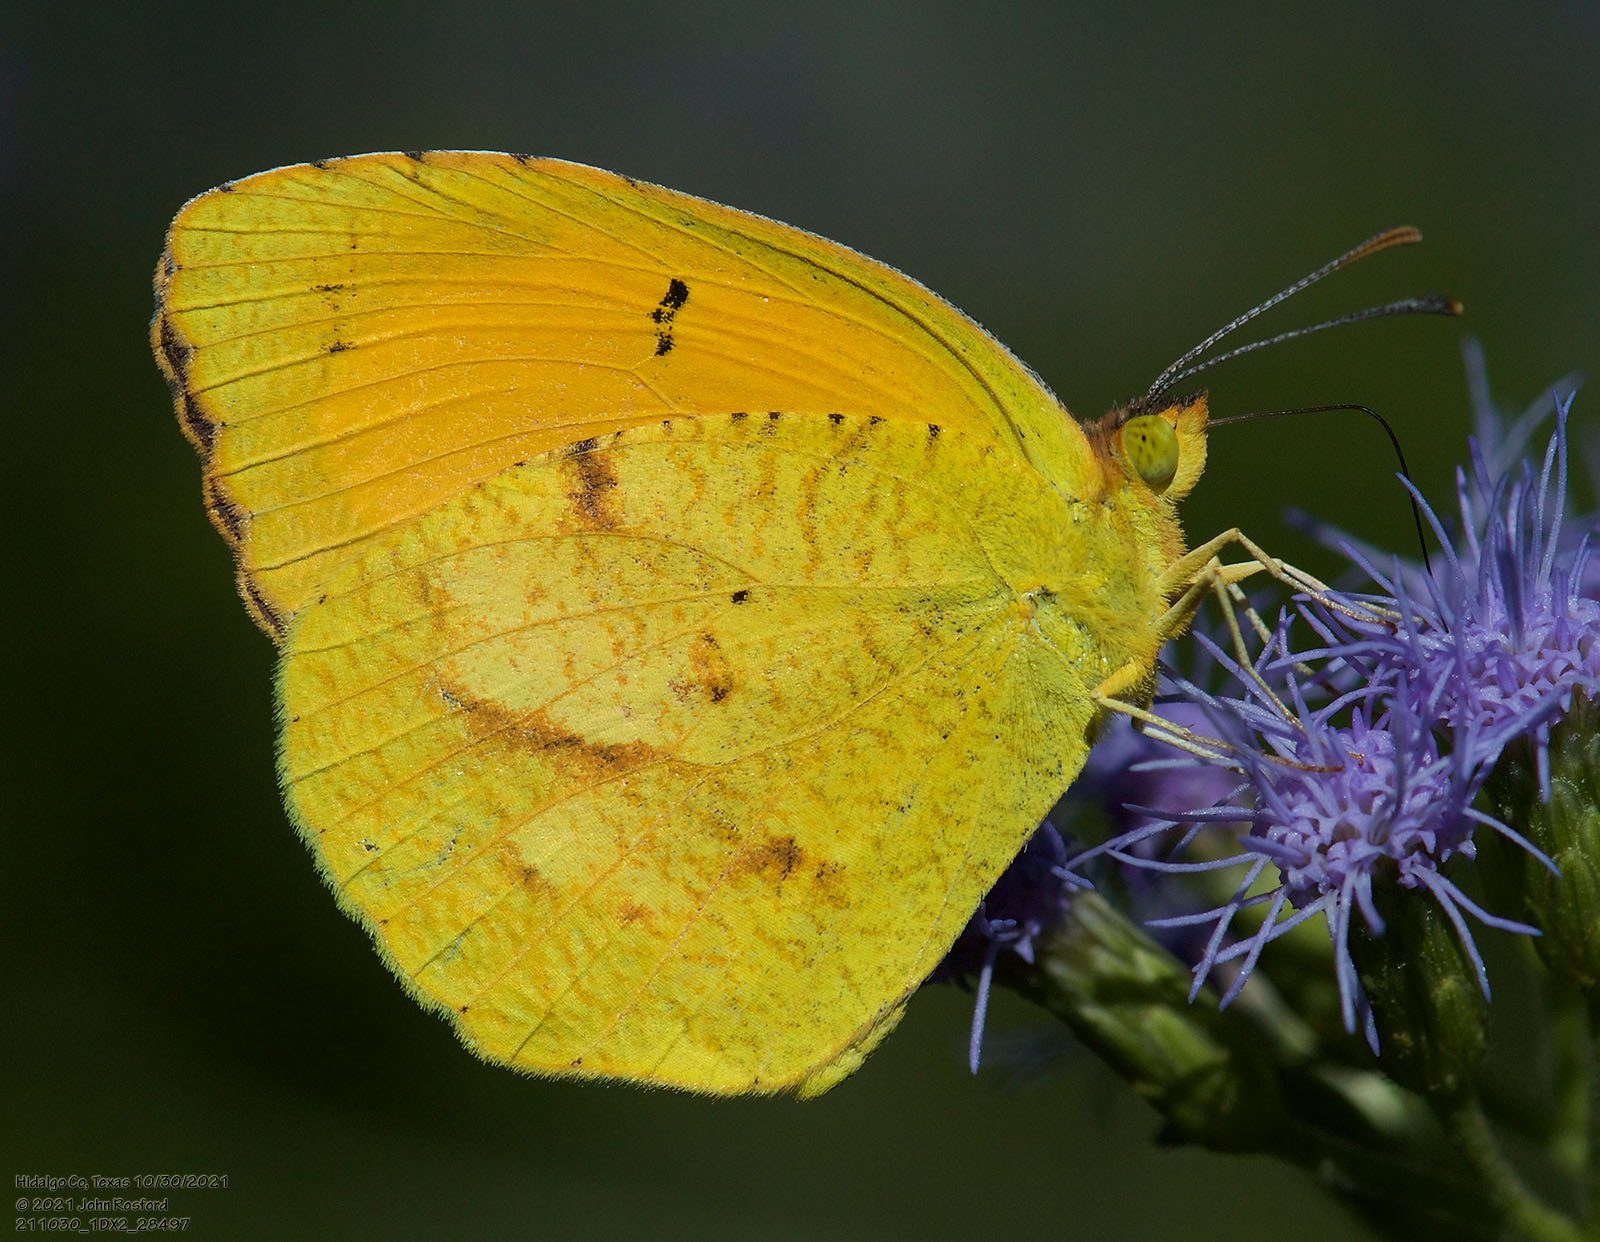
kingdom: Animalia
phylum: Arthropoda
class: Insecta
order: Lepidoptera
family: Pieridae
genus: Abaeis
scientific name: Abaeis nicippe
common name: Sleepy orange
